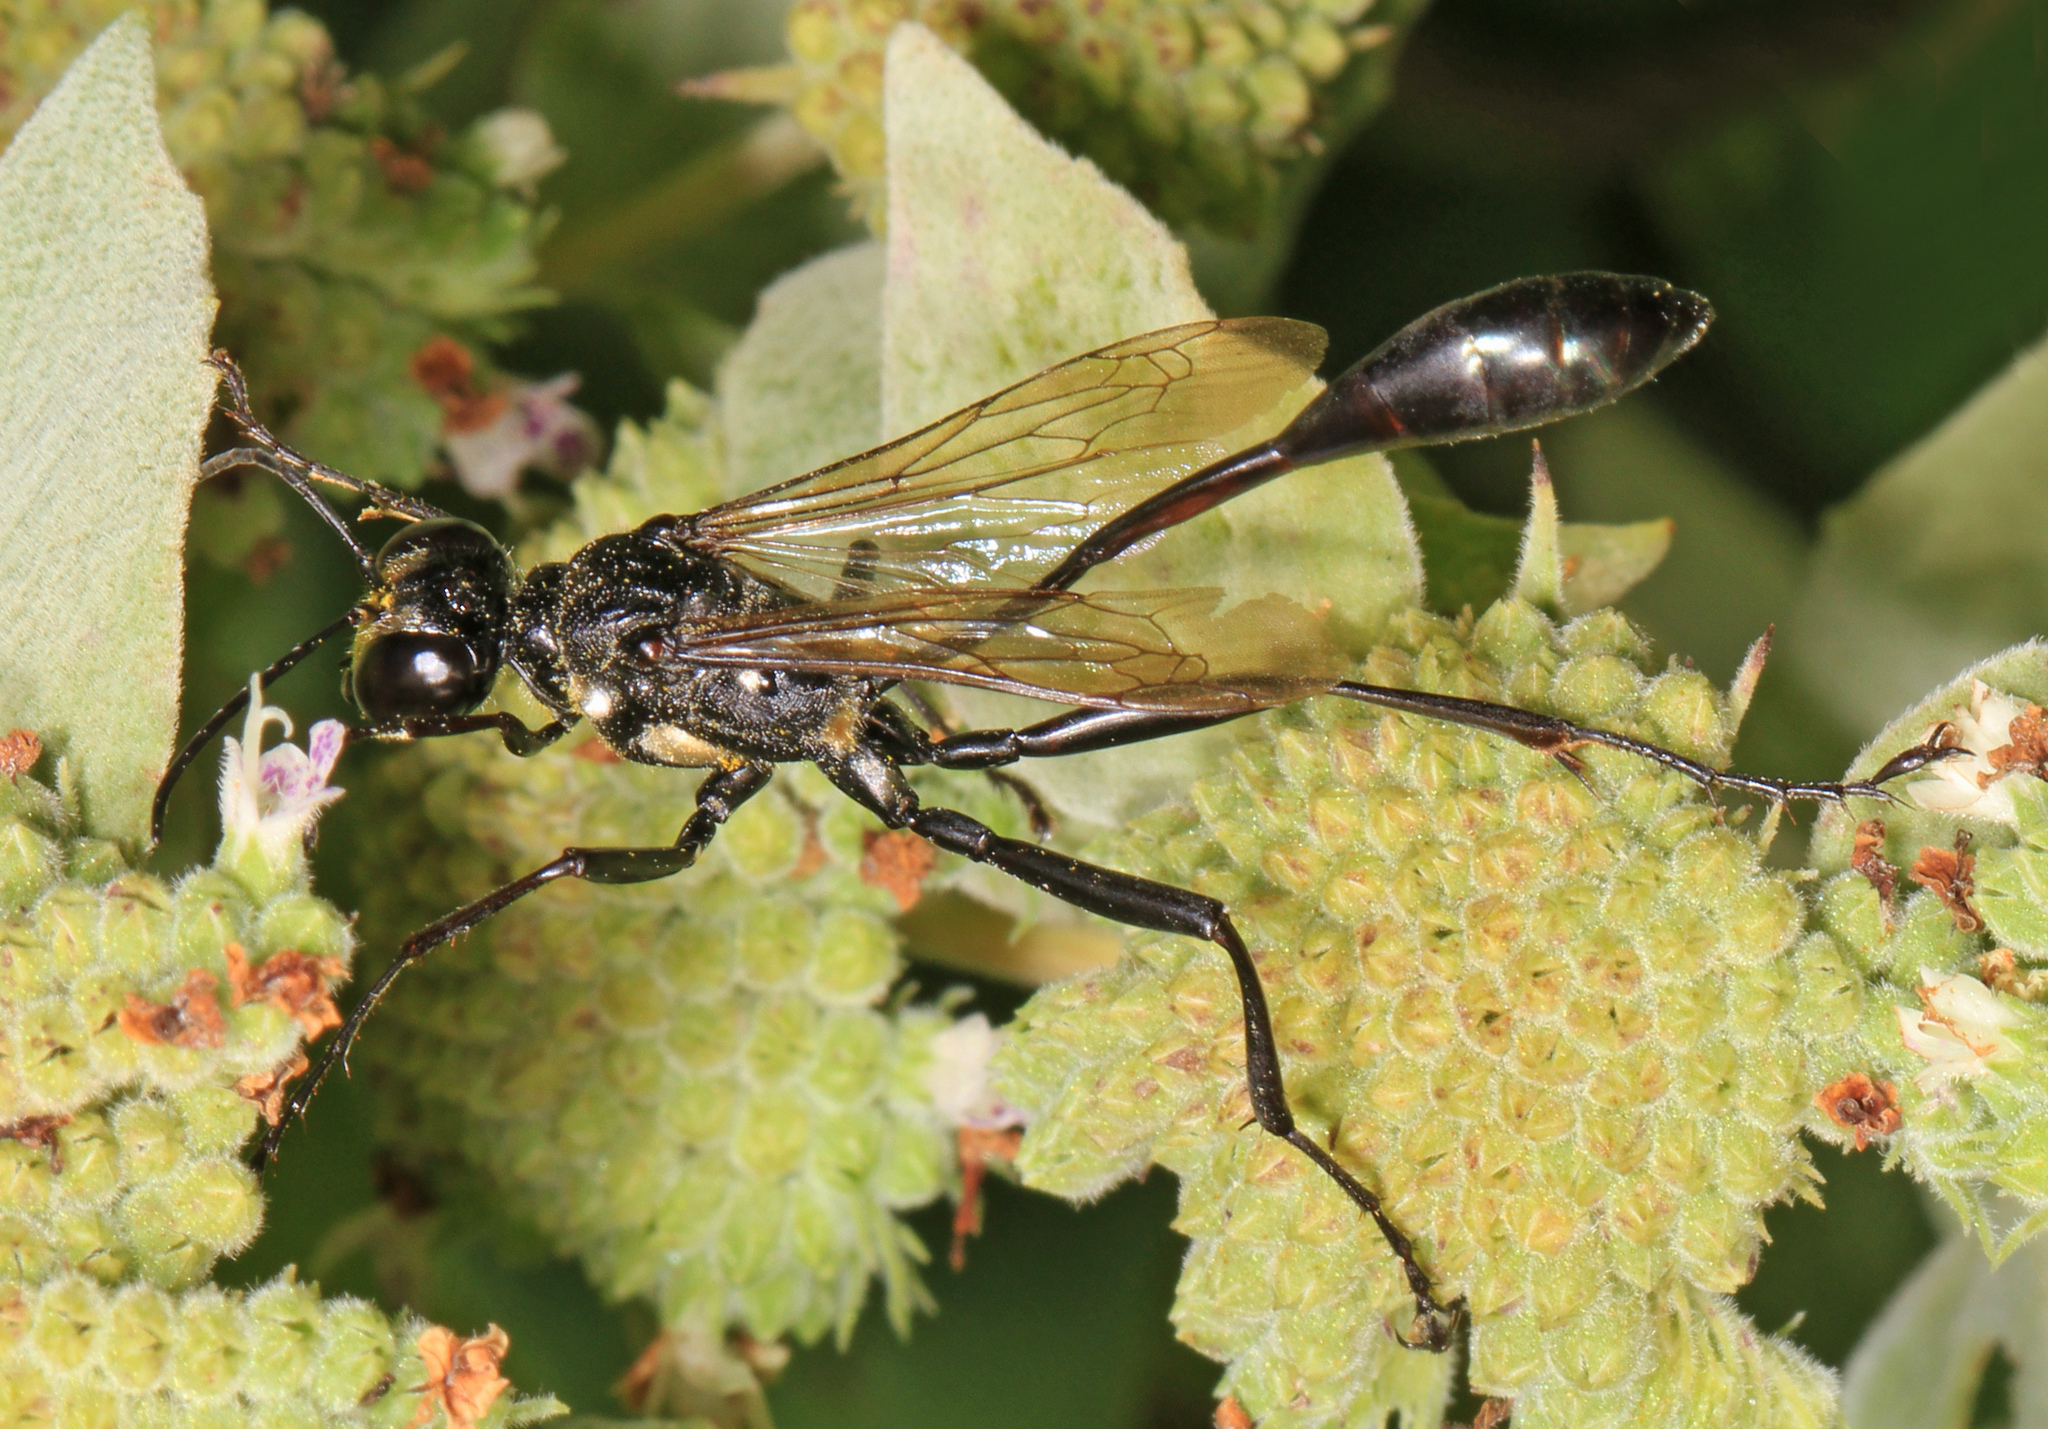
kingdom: Animalia
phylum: Arthropoda
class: Insecta
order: Hymenoptera
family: Sphecidae
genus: Eremnophila
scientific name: Eremnophila aureonotata
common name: Gold-marked thread-waisted wasp
